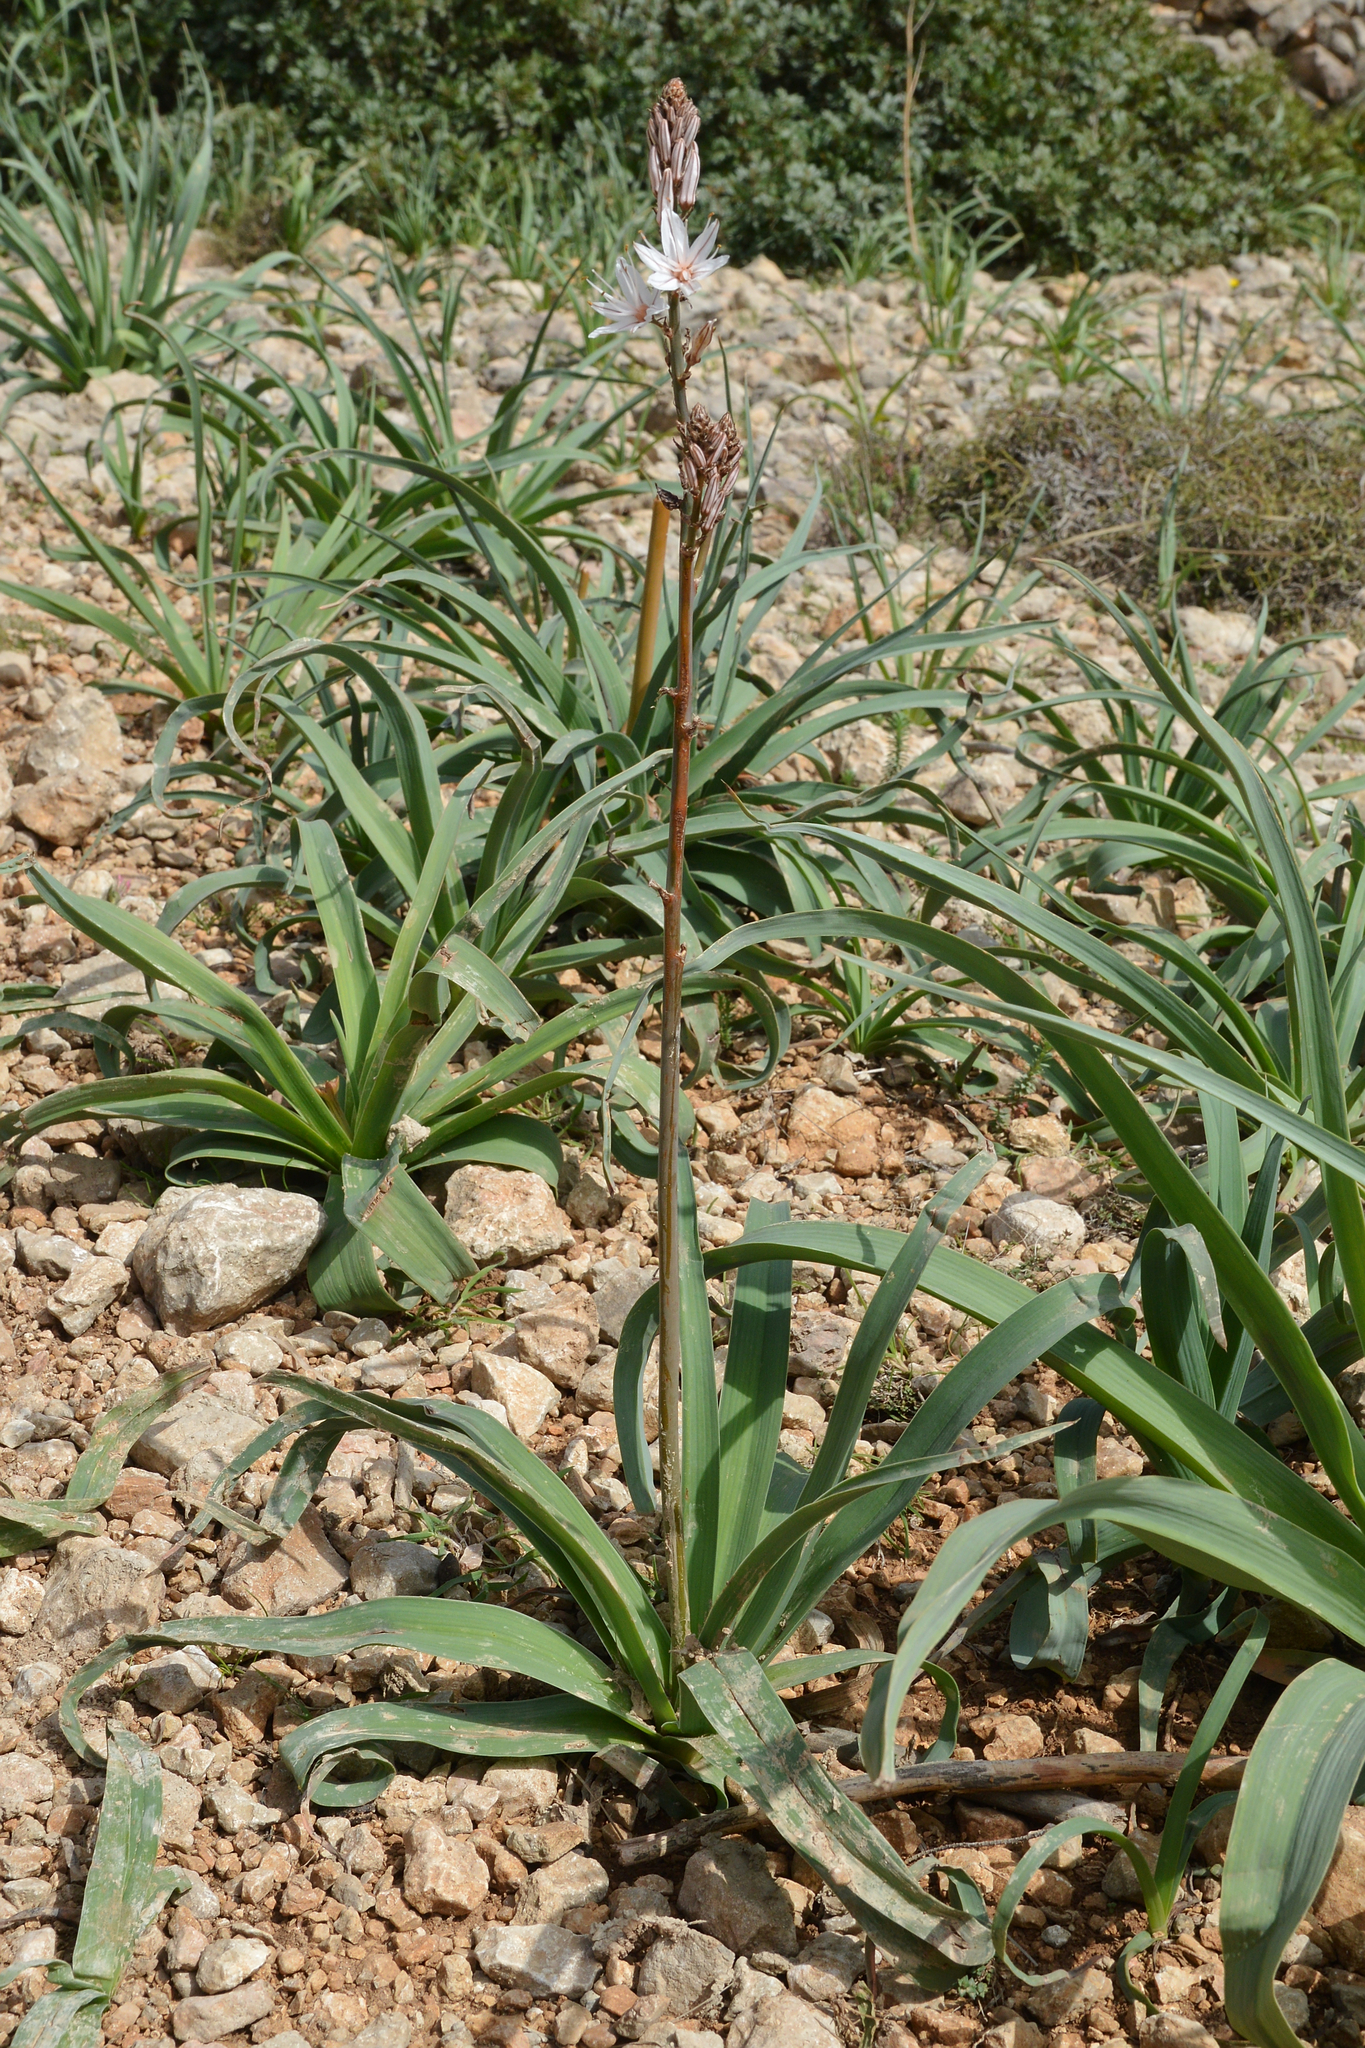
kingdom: Plantae
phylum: Tracheophyta
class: Liliopsida
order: Asparagales
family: Asphodelaceae
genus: Asphodelus
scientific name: Asphodelus ramosus
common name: Silverrod
